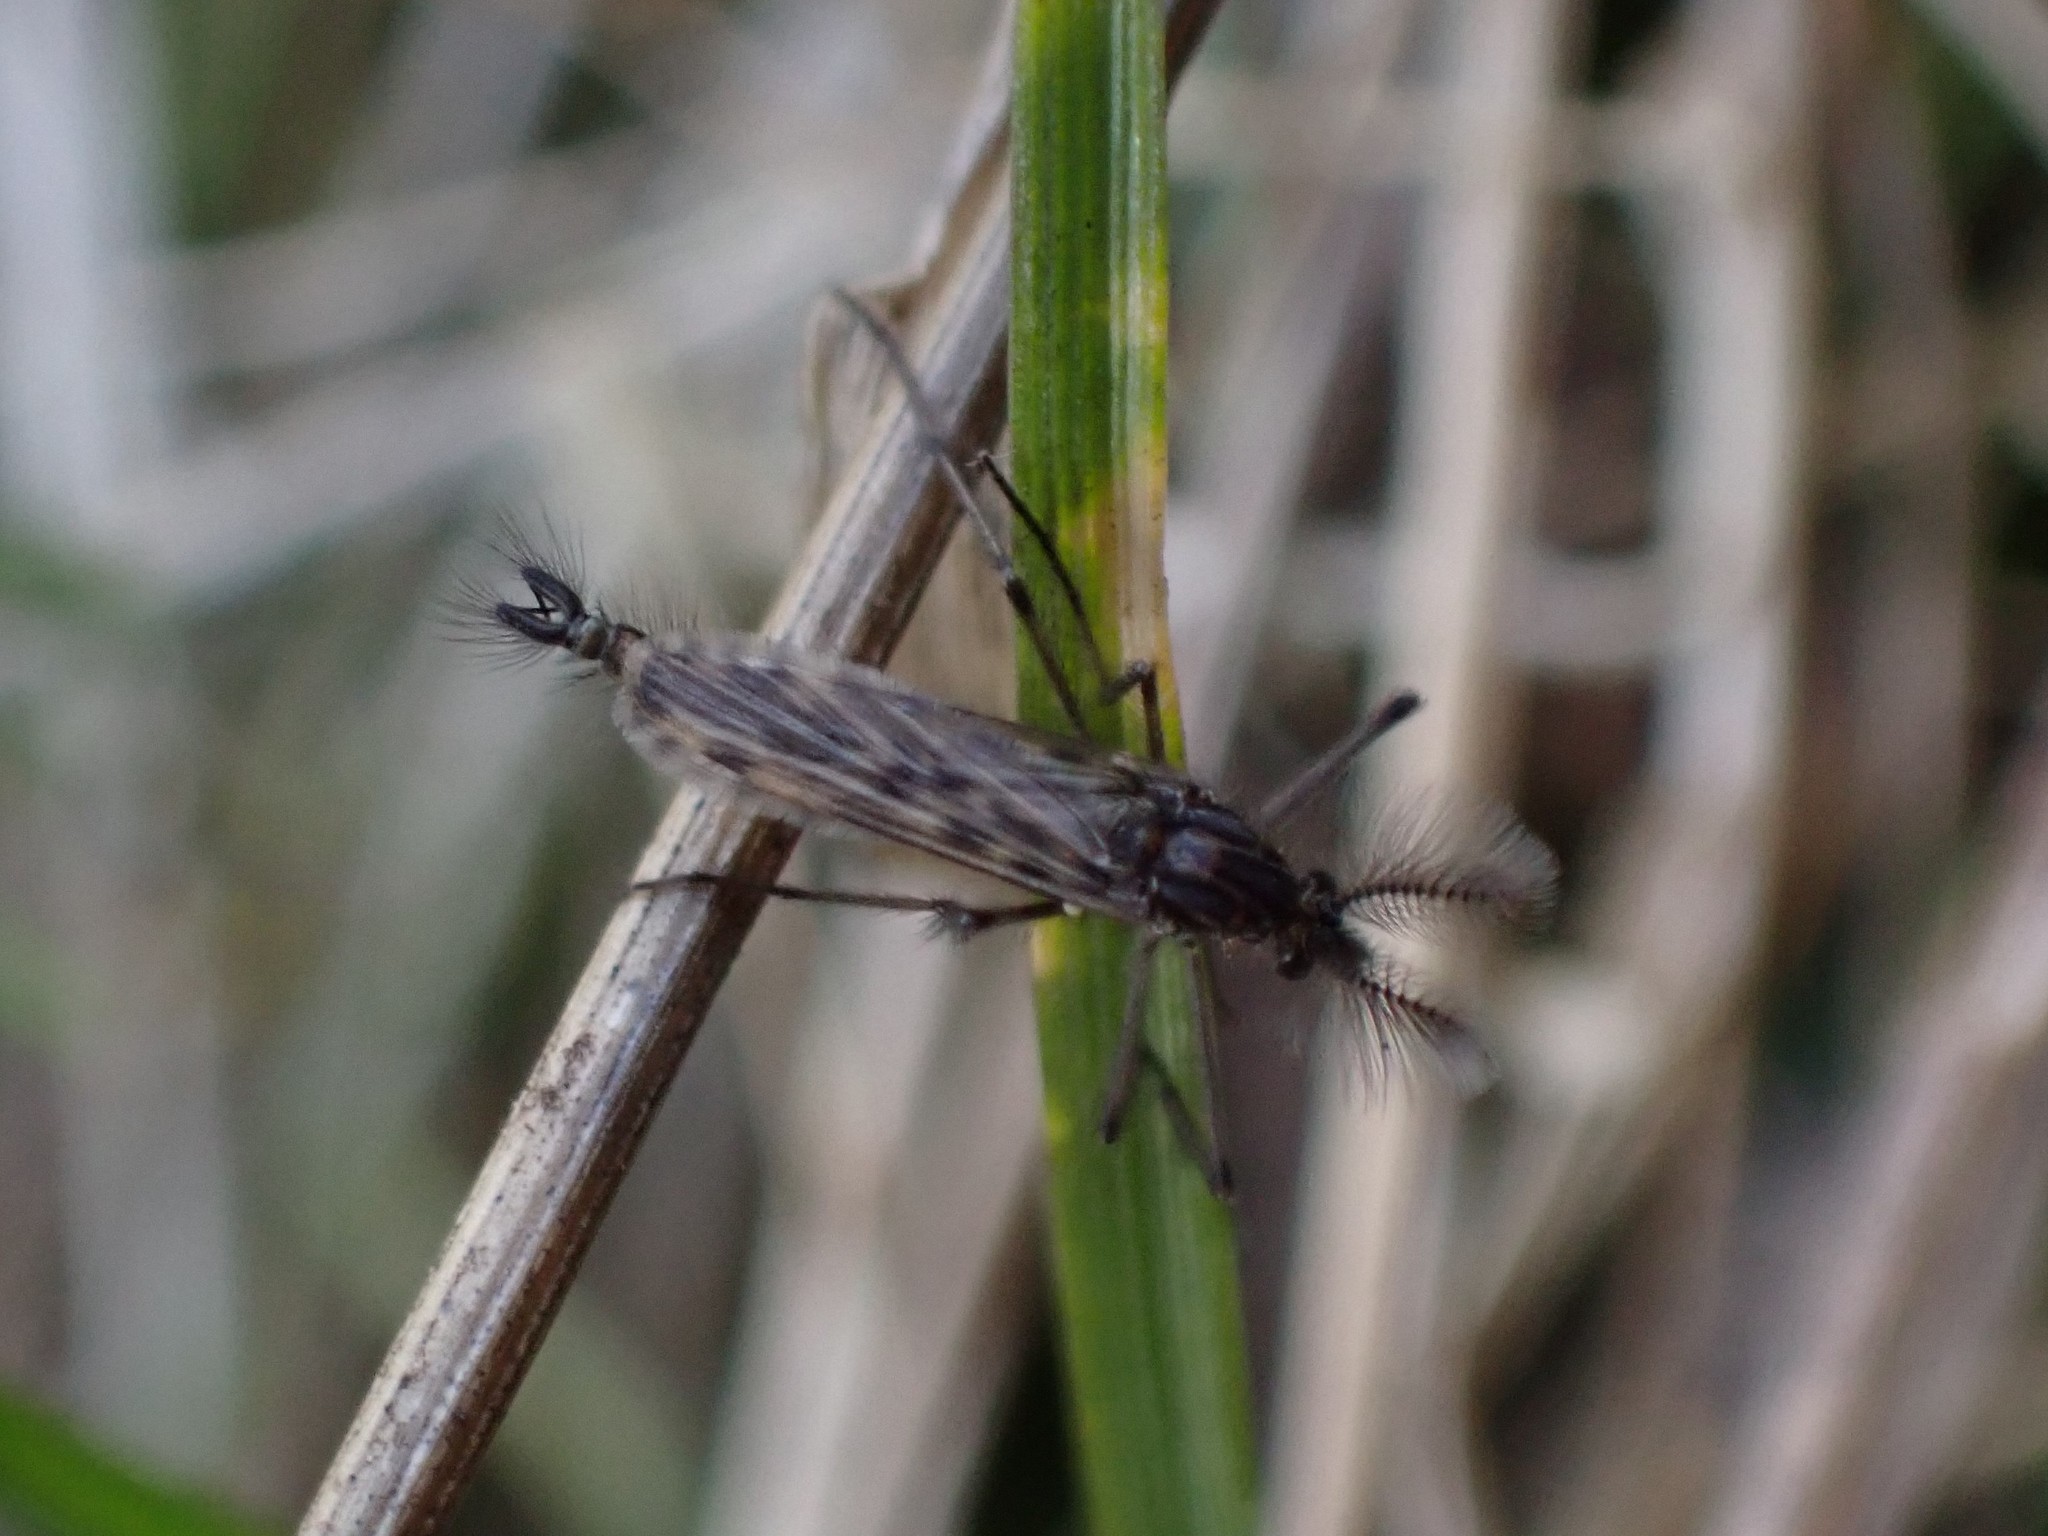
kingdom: Animalia
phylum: Arthropoda
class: Insecta
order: Diptera
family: Chaoboridae
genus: Chaoborus
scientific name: Chaoborus trivittatus
